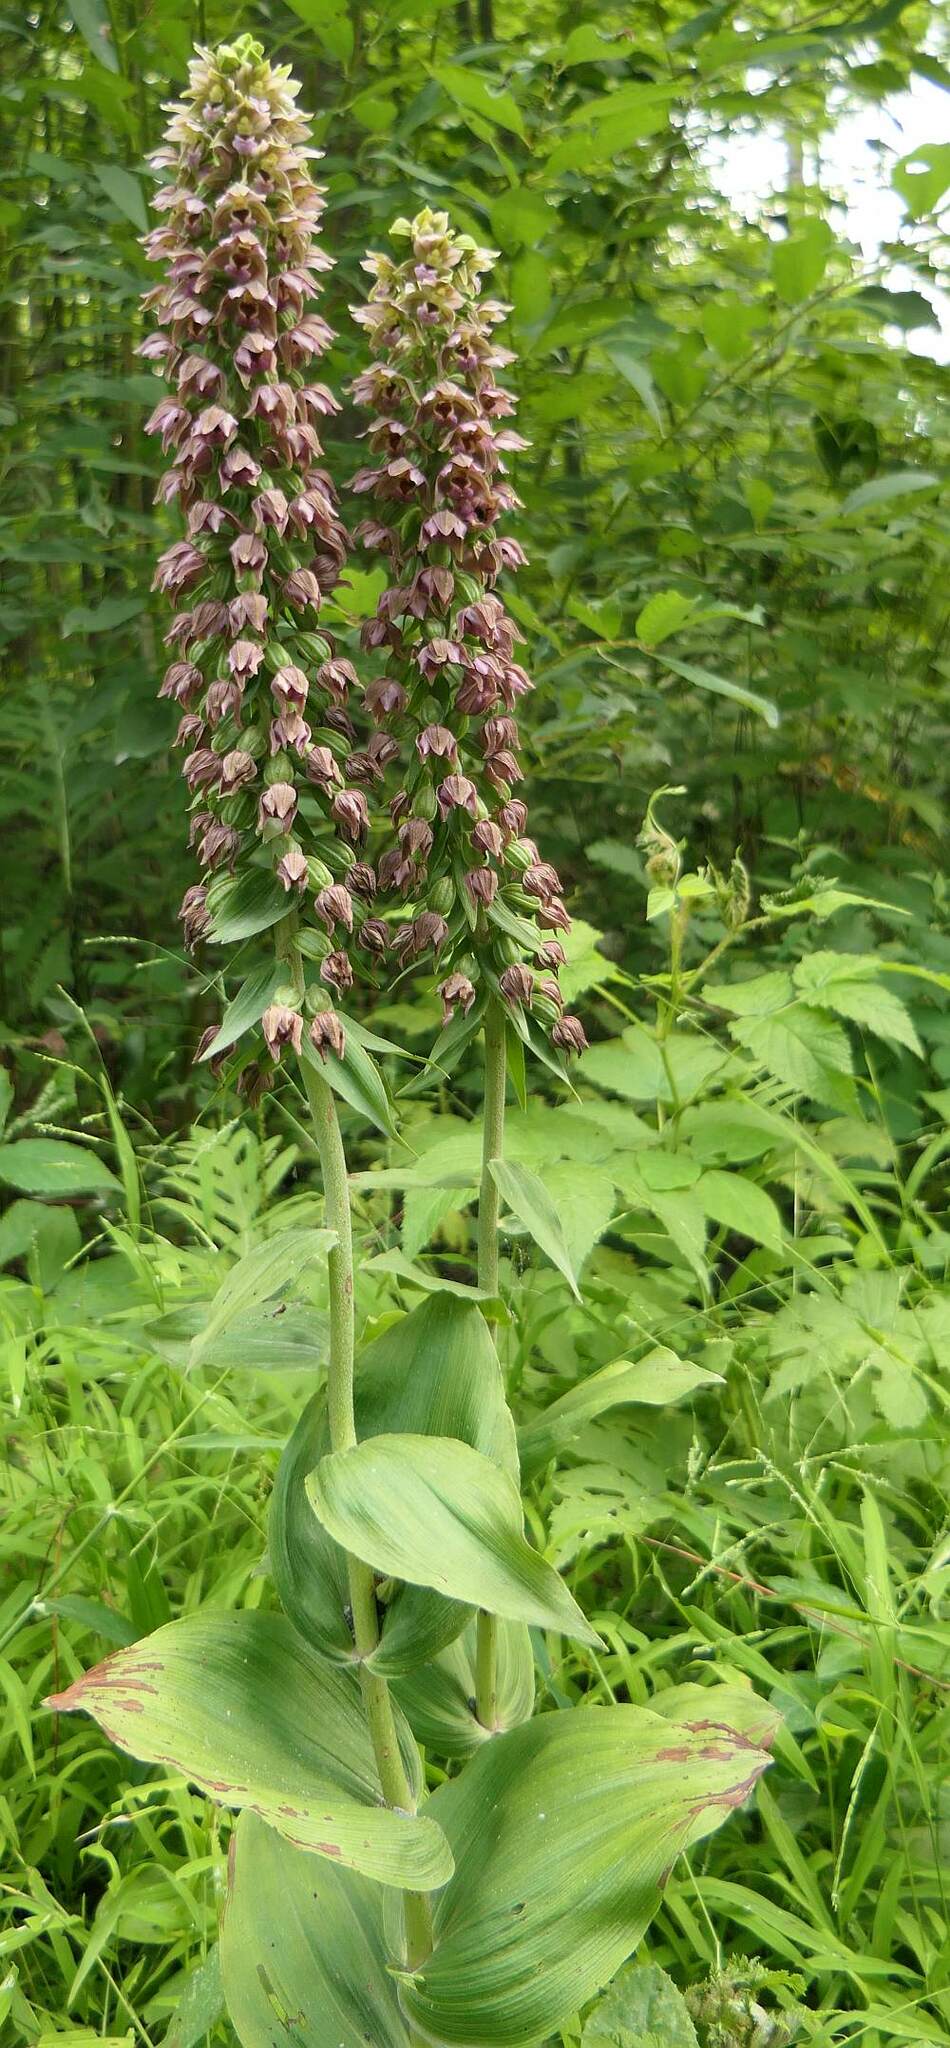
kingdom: Plantae
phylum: Tracheophyta
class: Liliopsida
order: Asparagales
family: Orchidaceae
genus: Epipactis
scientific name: Epipactis helleborine
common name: Broad-leaved helleborine
